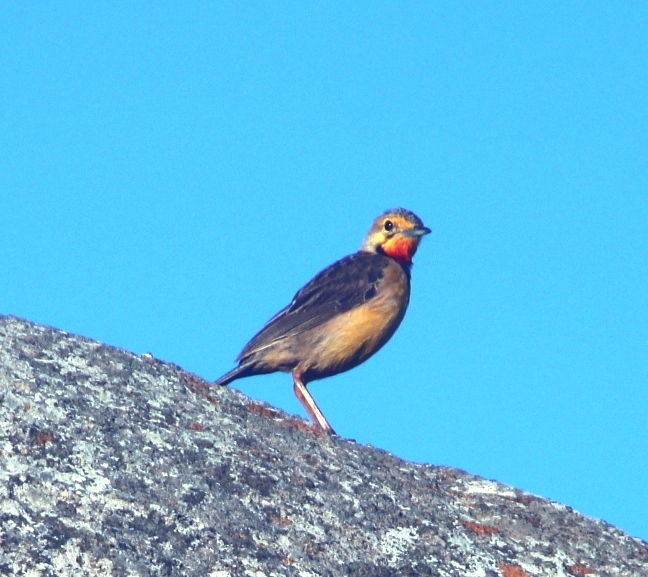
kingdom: Animalia
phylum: Chordata
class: Aves
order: Passeriformes
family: Motacillidae
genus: Macronyx
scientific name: Macronyx capensis
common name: Cape longclaw
